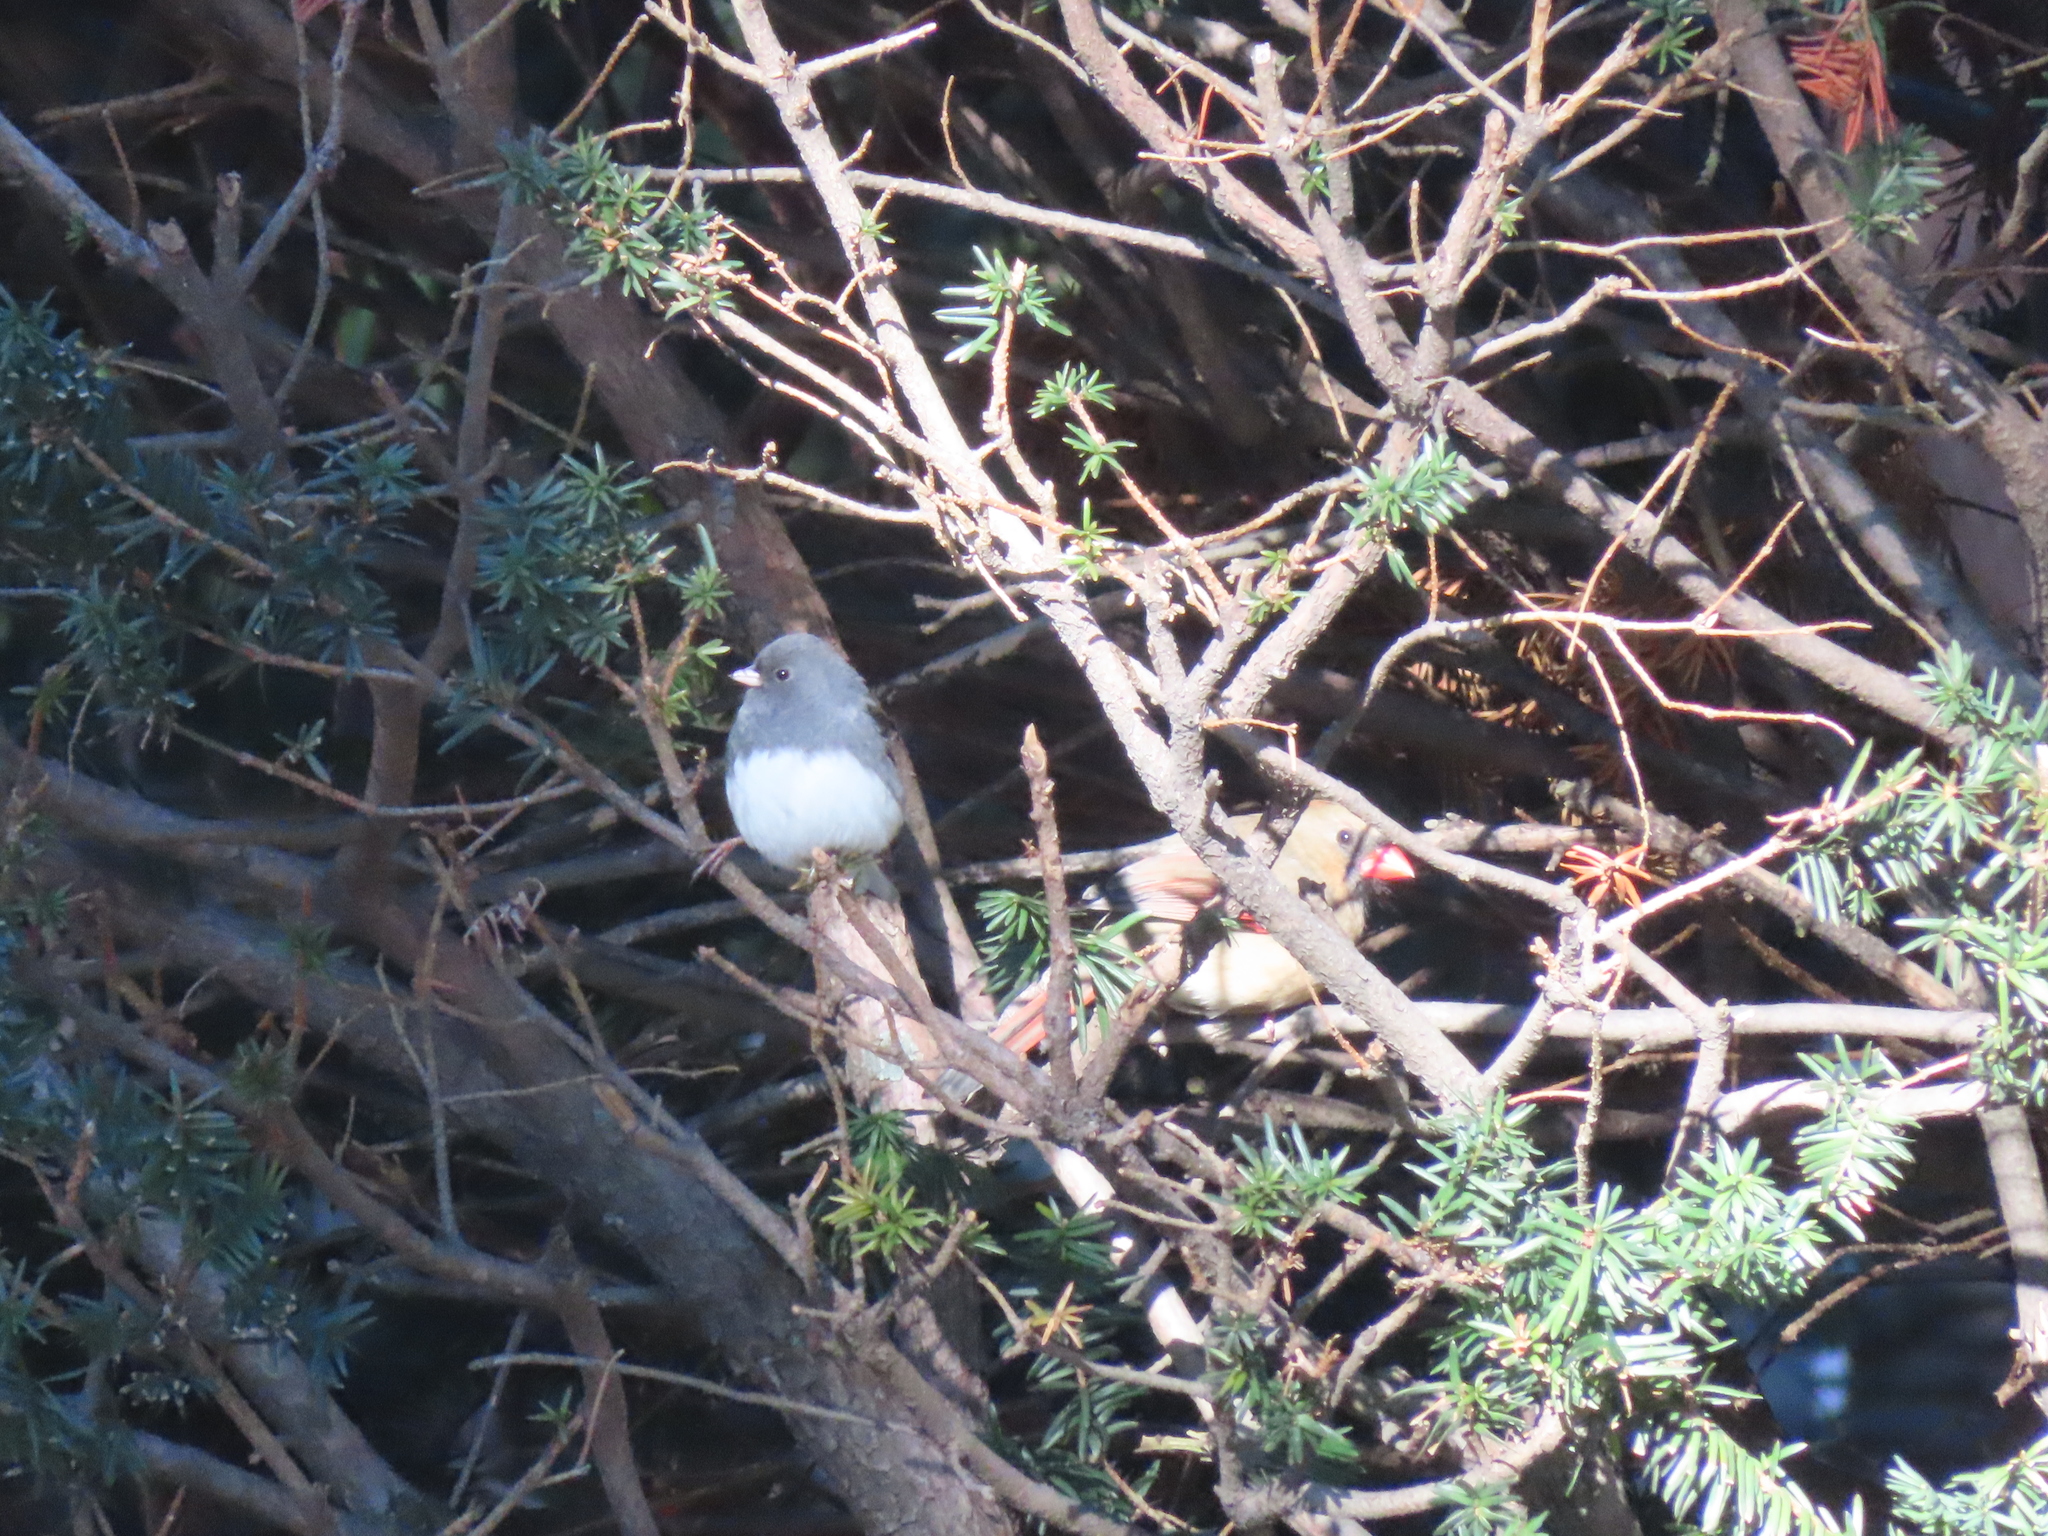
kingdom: Animalia
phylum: Chordata
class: Aves
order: Passeriformes
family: Passerellidae
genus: Junco
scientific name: Junco hyemalis
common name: Dark-eyed junco
